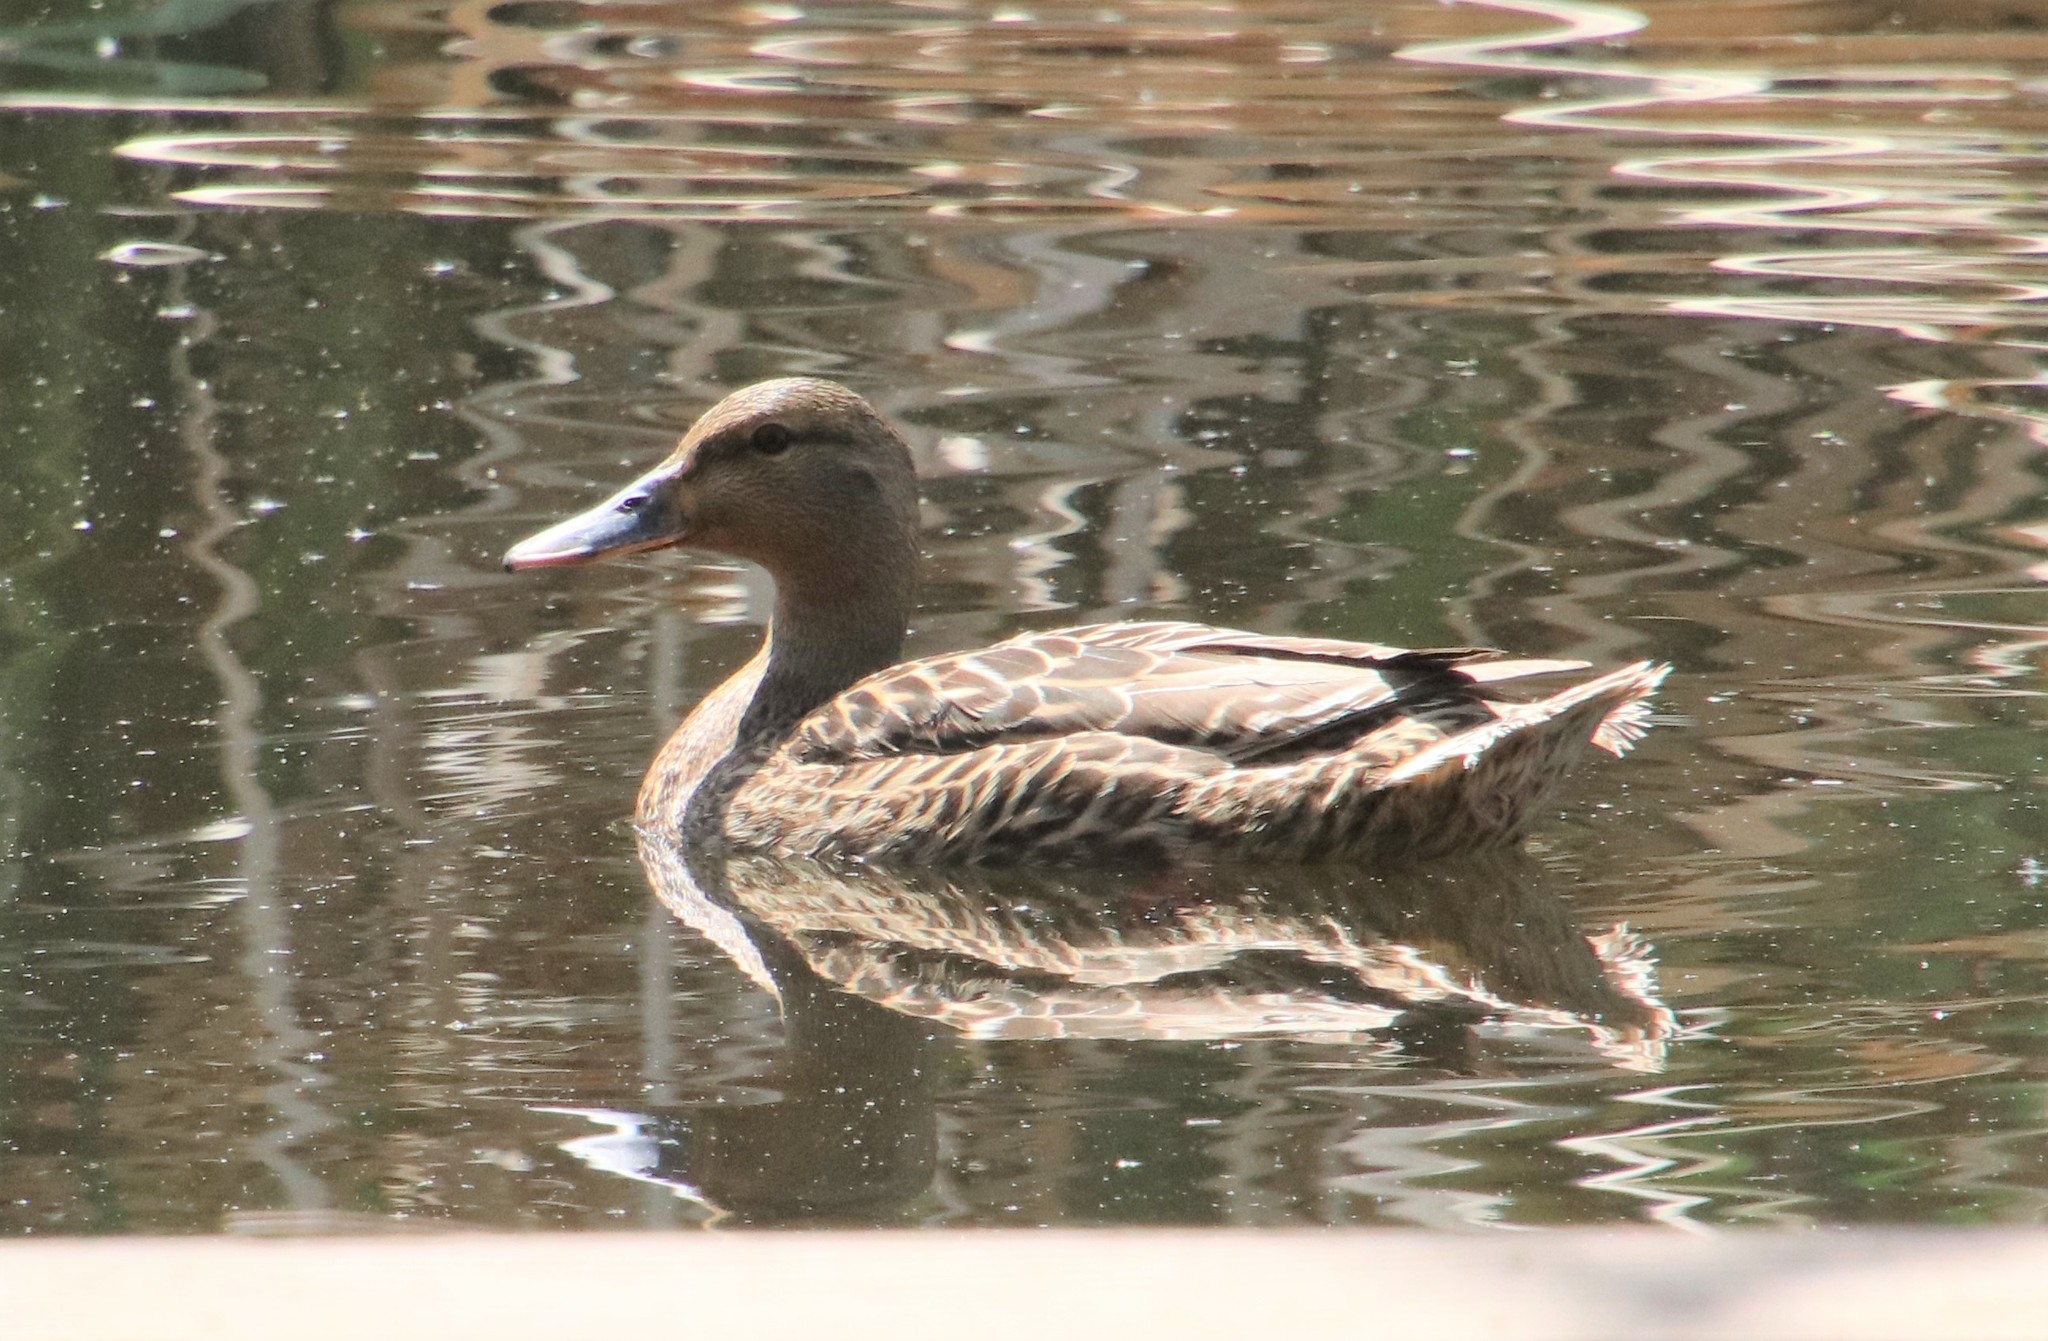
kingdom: Animalia
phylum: Chordata
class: Aves
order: Anseriformes
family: Anatidae
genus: Anas
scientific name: Anas platyrhynchos
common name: Mallard
